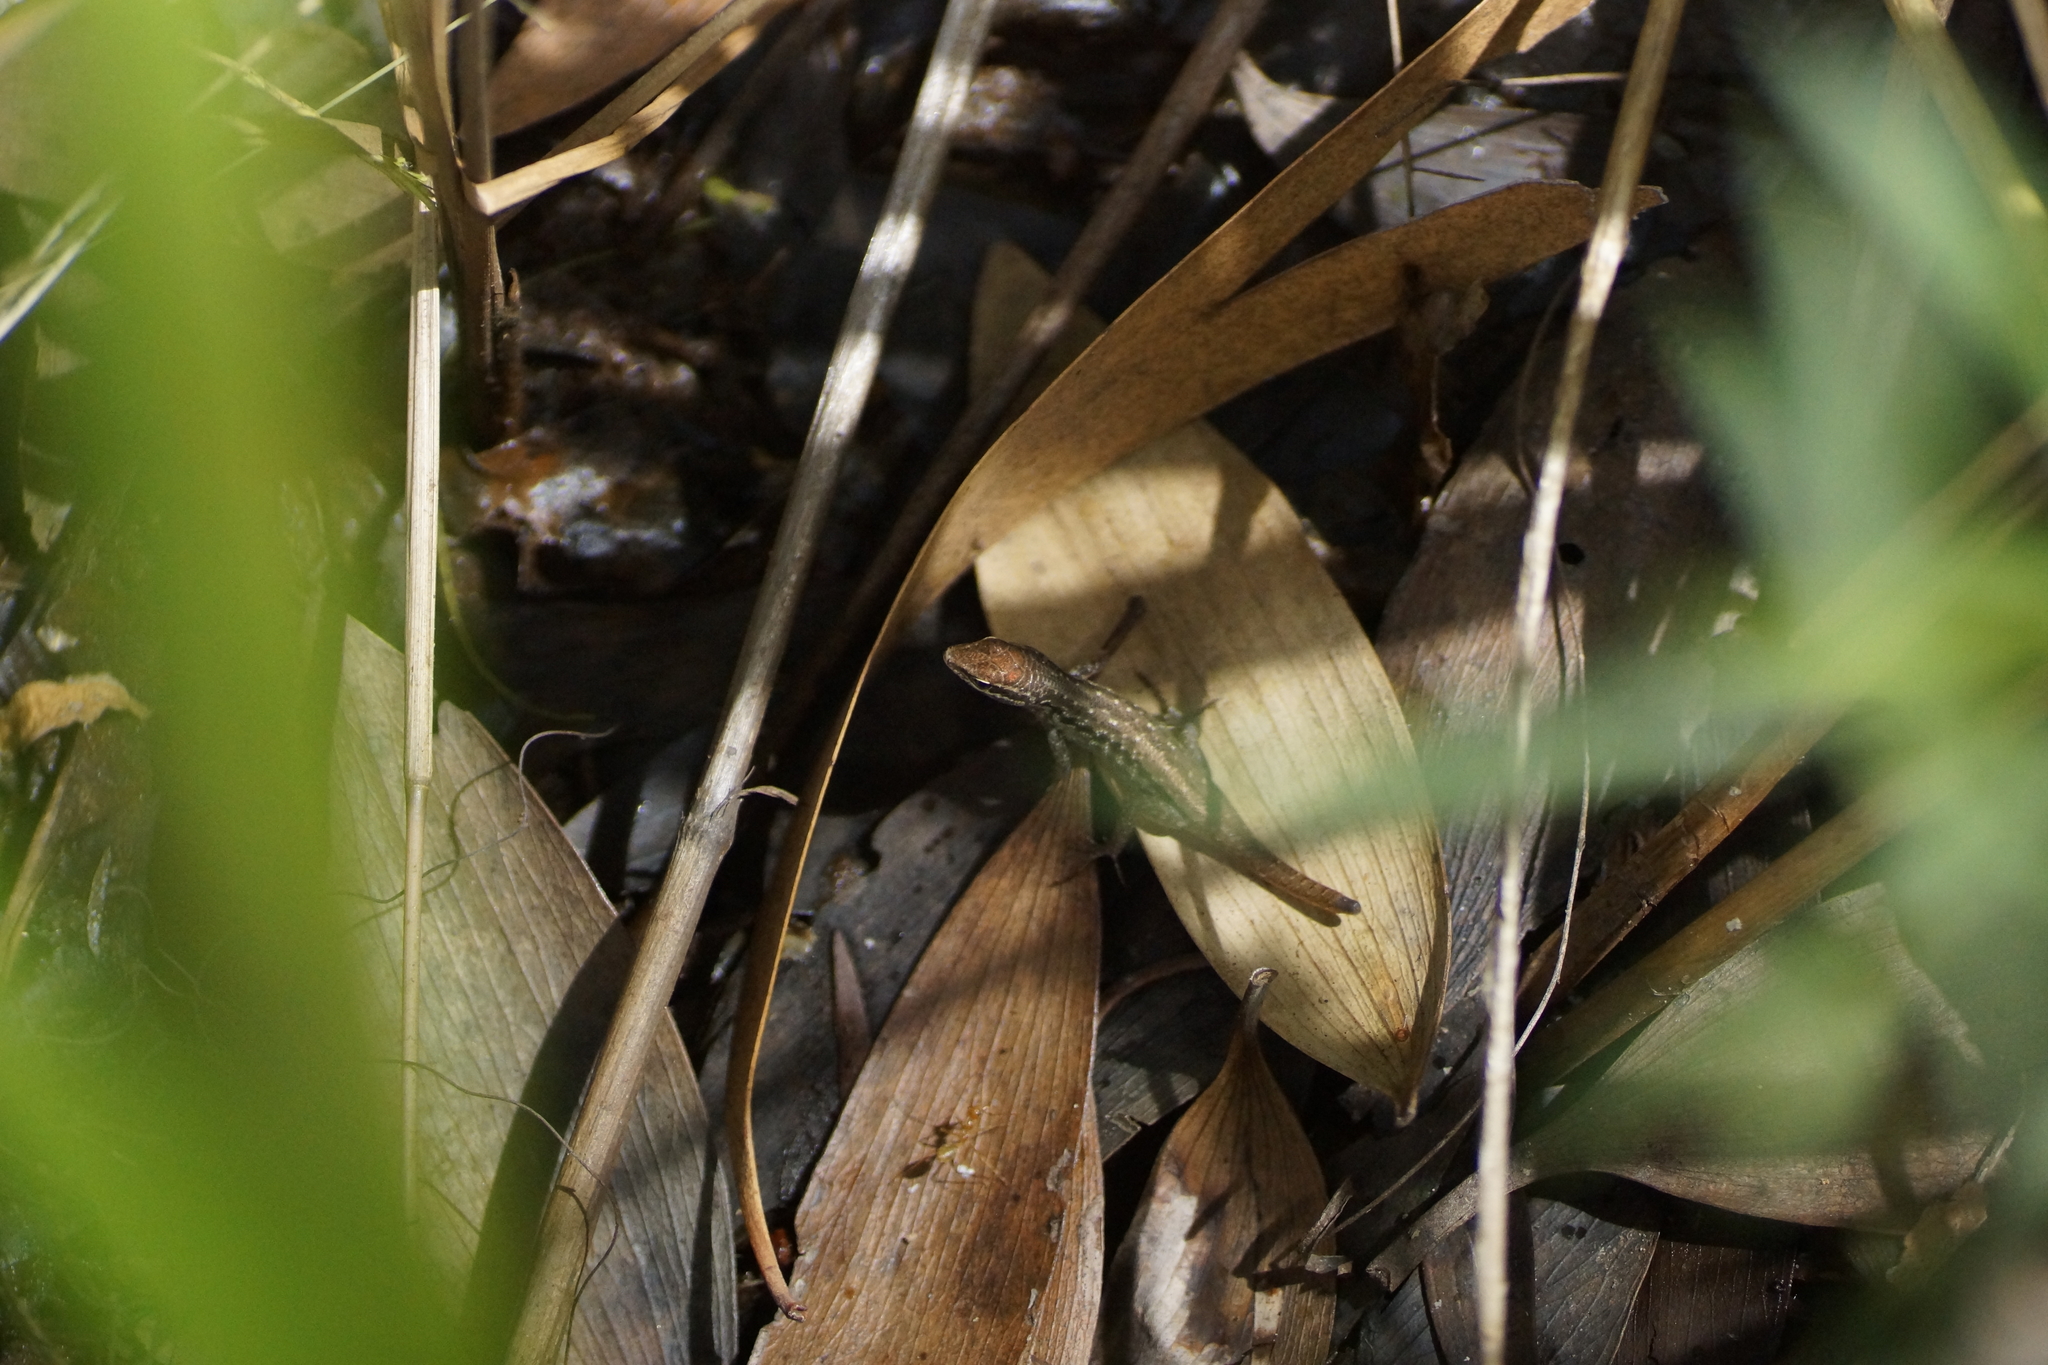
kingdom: Animalia
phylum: Chordata
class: Squamata
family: Scincidae
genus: Carlia
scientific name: Carlia sexdentata
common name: Closed-litter rainbow-skink
